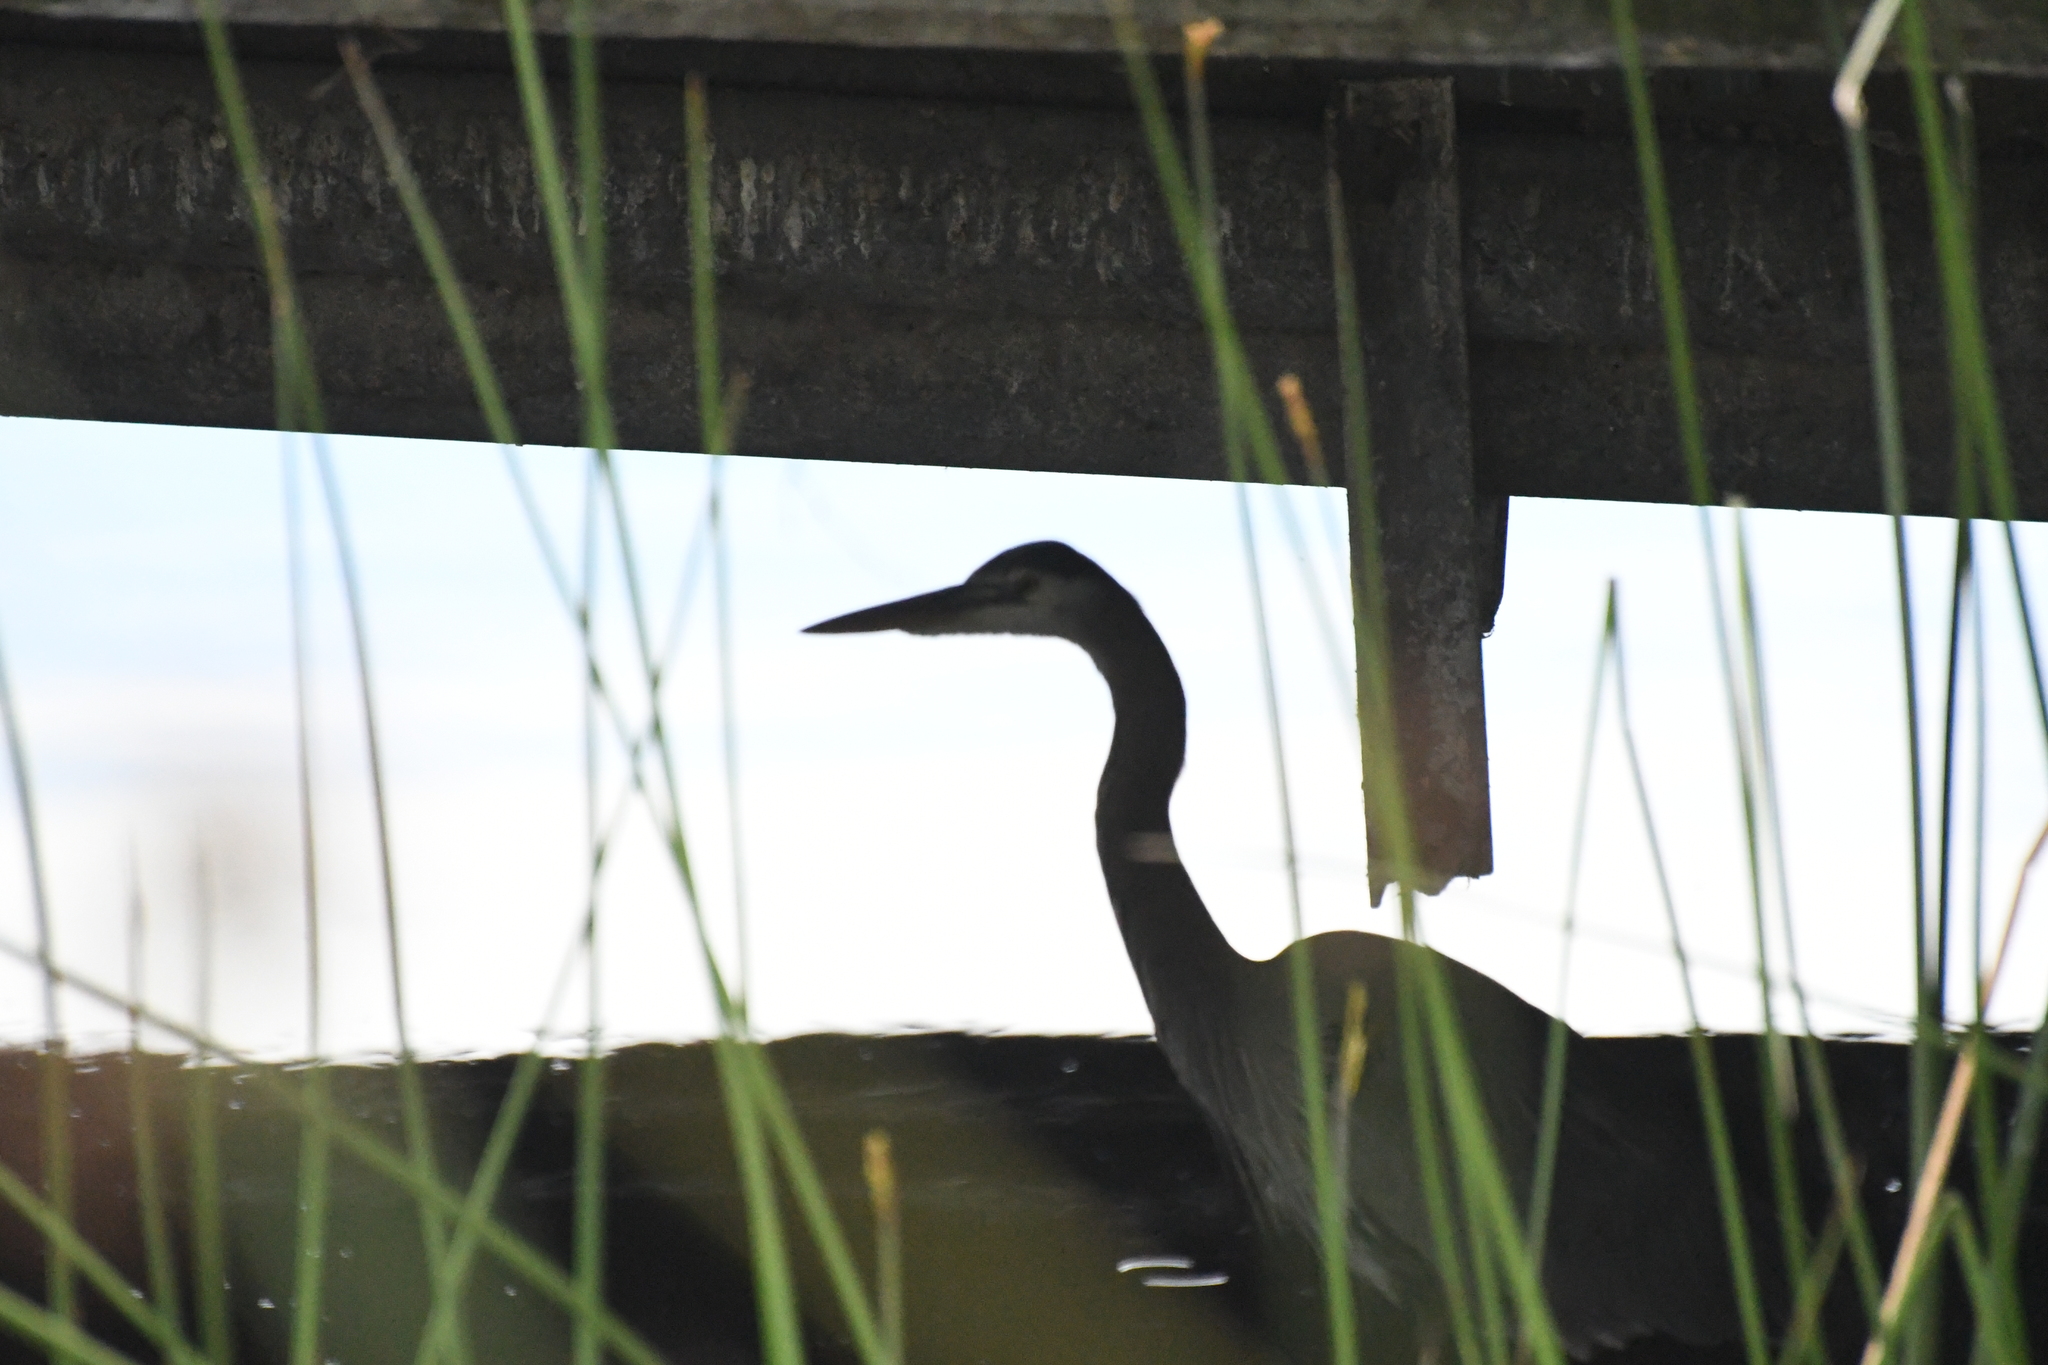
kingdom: Animalia
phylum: Chordata
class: Aves
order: Pelecaniformes
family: Ardeidae
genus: Ardea
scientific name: Ardea herodias
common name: Great blue heron
